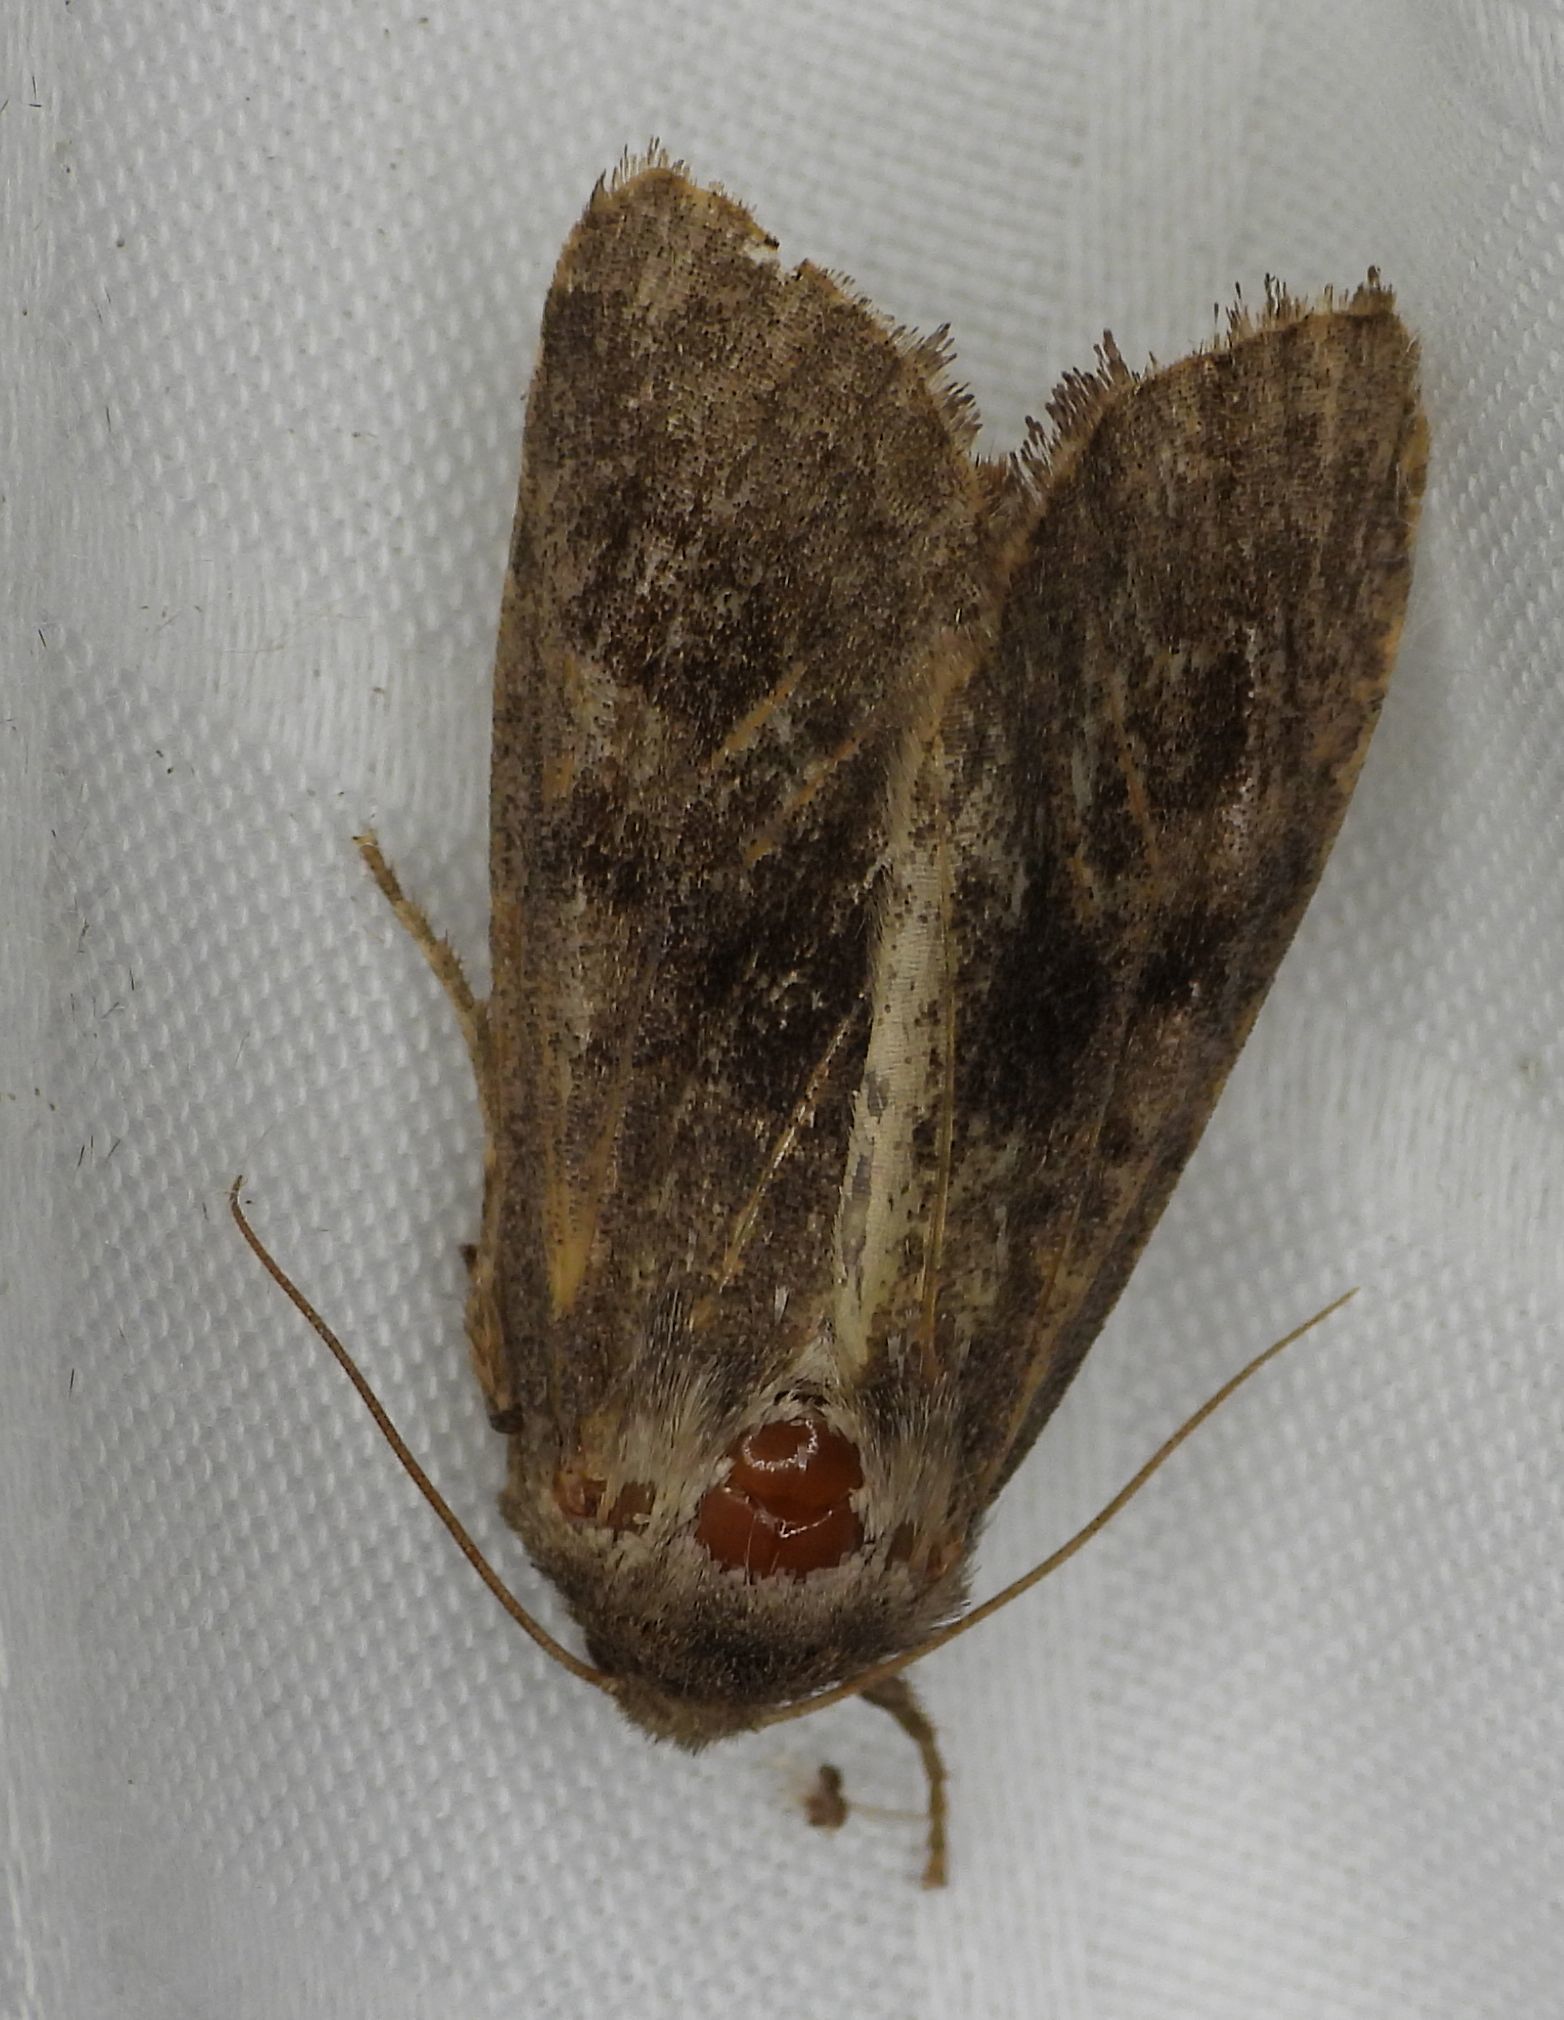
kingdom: Animalia
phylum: Arthropoda
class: Insecta
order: Lepidoptera
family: Noctuidae
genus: Nephelodes
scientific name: Nephelodes minians
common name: Bronzed cutworm
